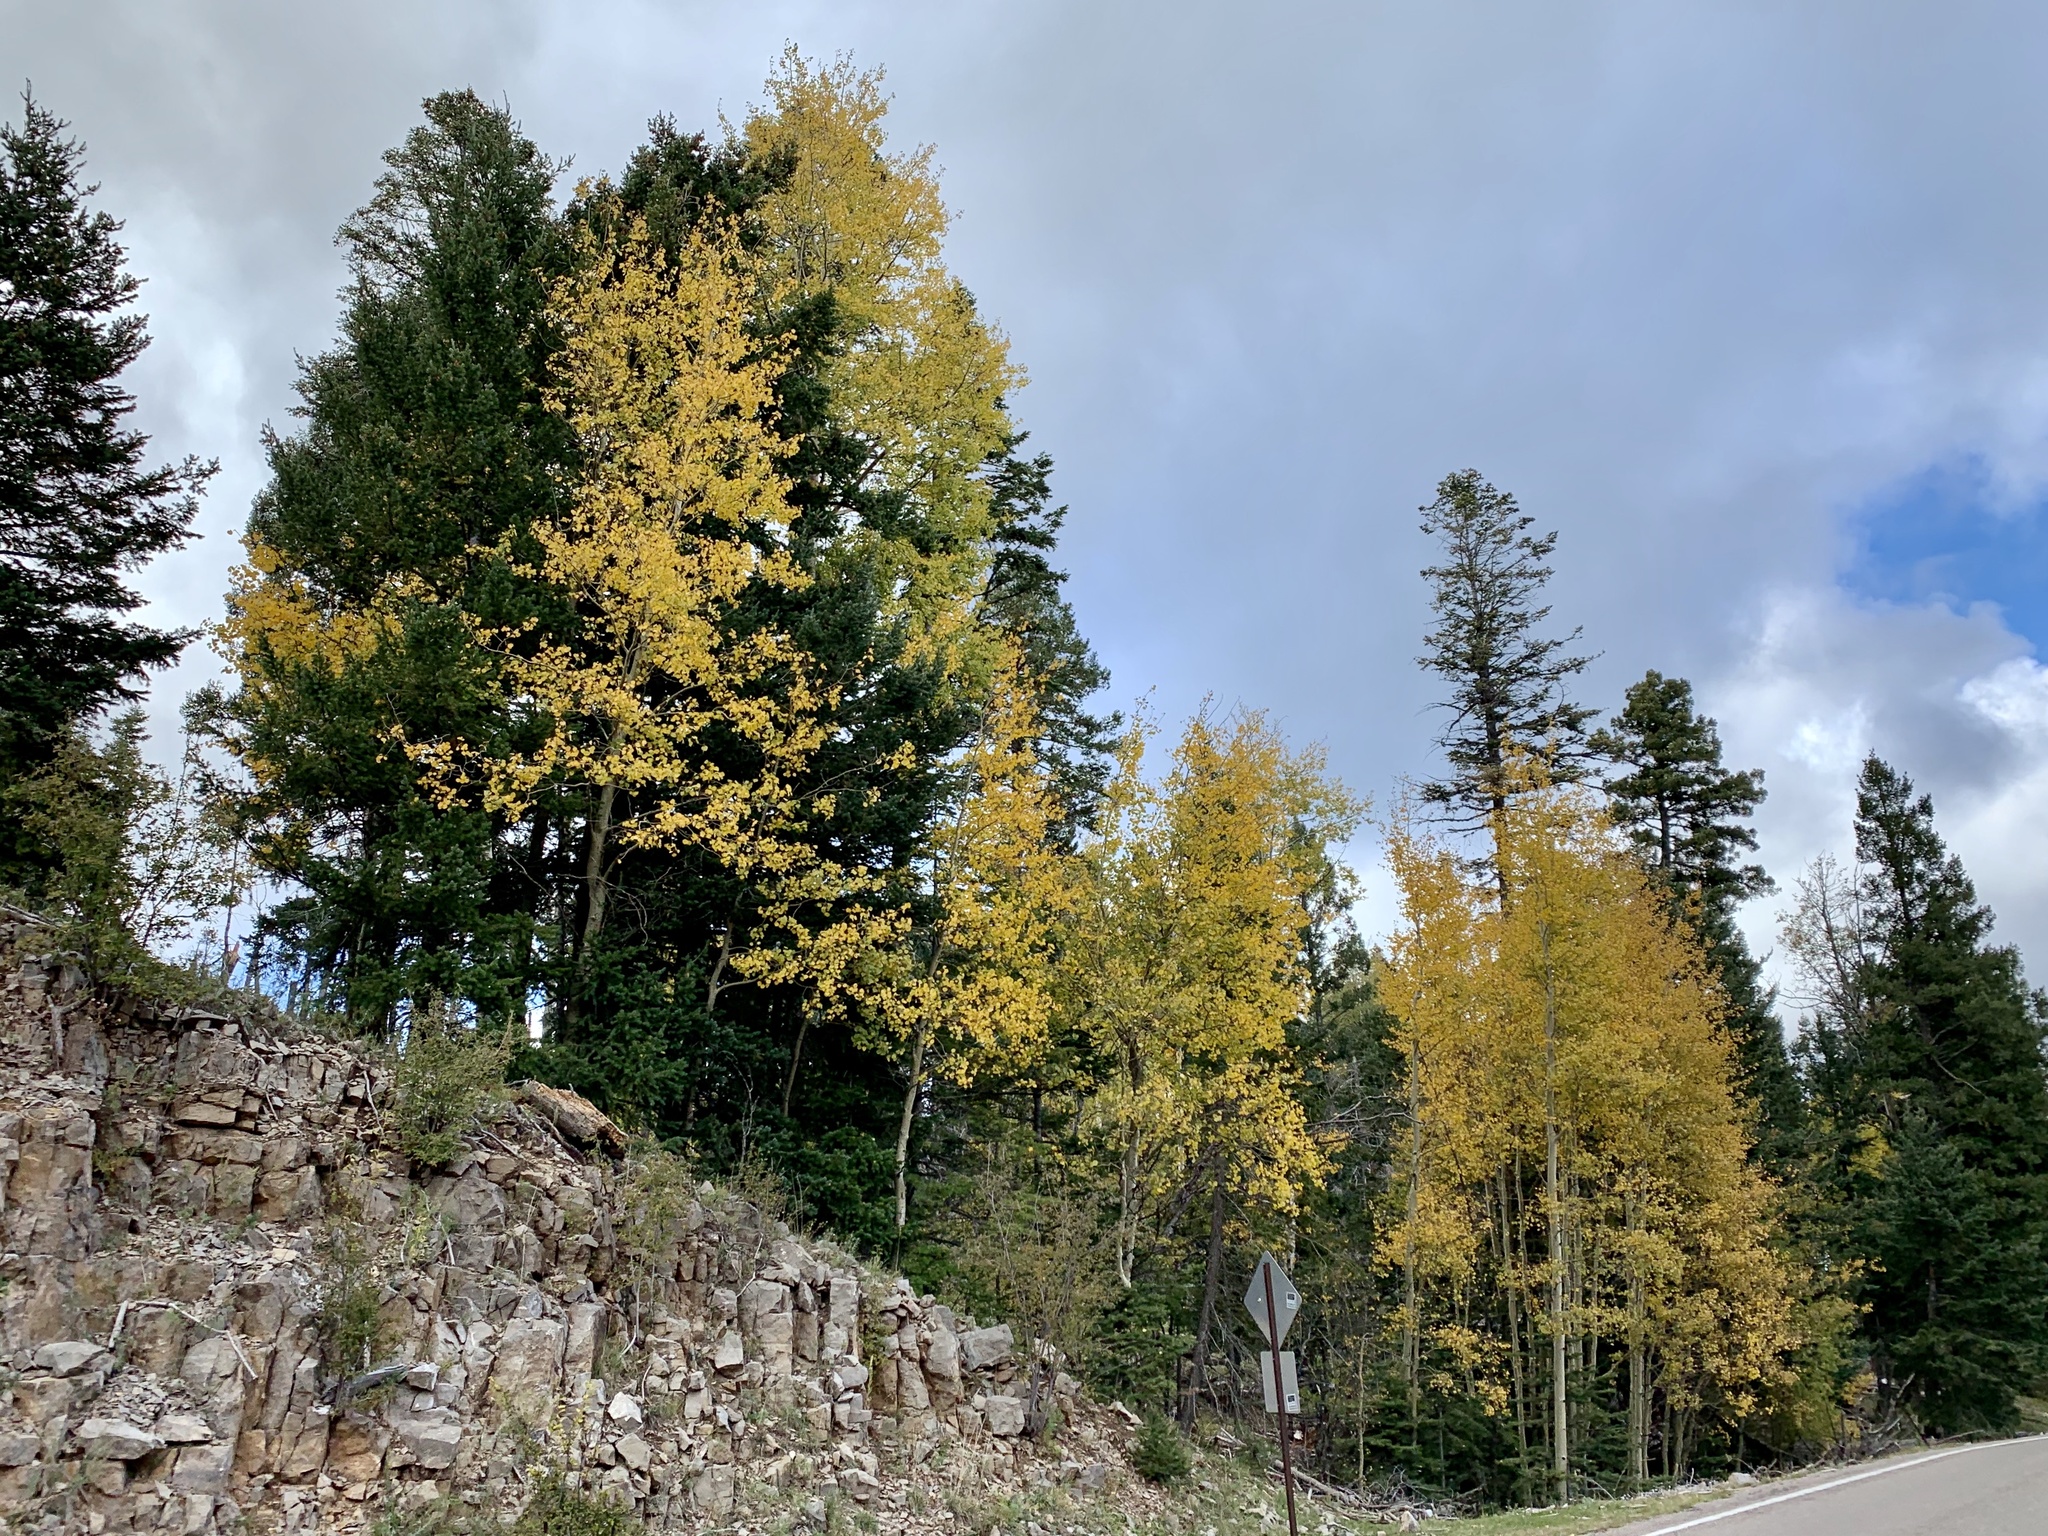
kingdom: Plantae
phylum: Tracheophyta
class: Magnoliopsida
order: Malpighiales
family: Salicaceae
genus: Populus
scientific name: Populus tremuloides
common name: Quaking aspen
